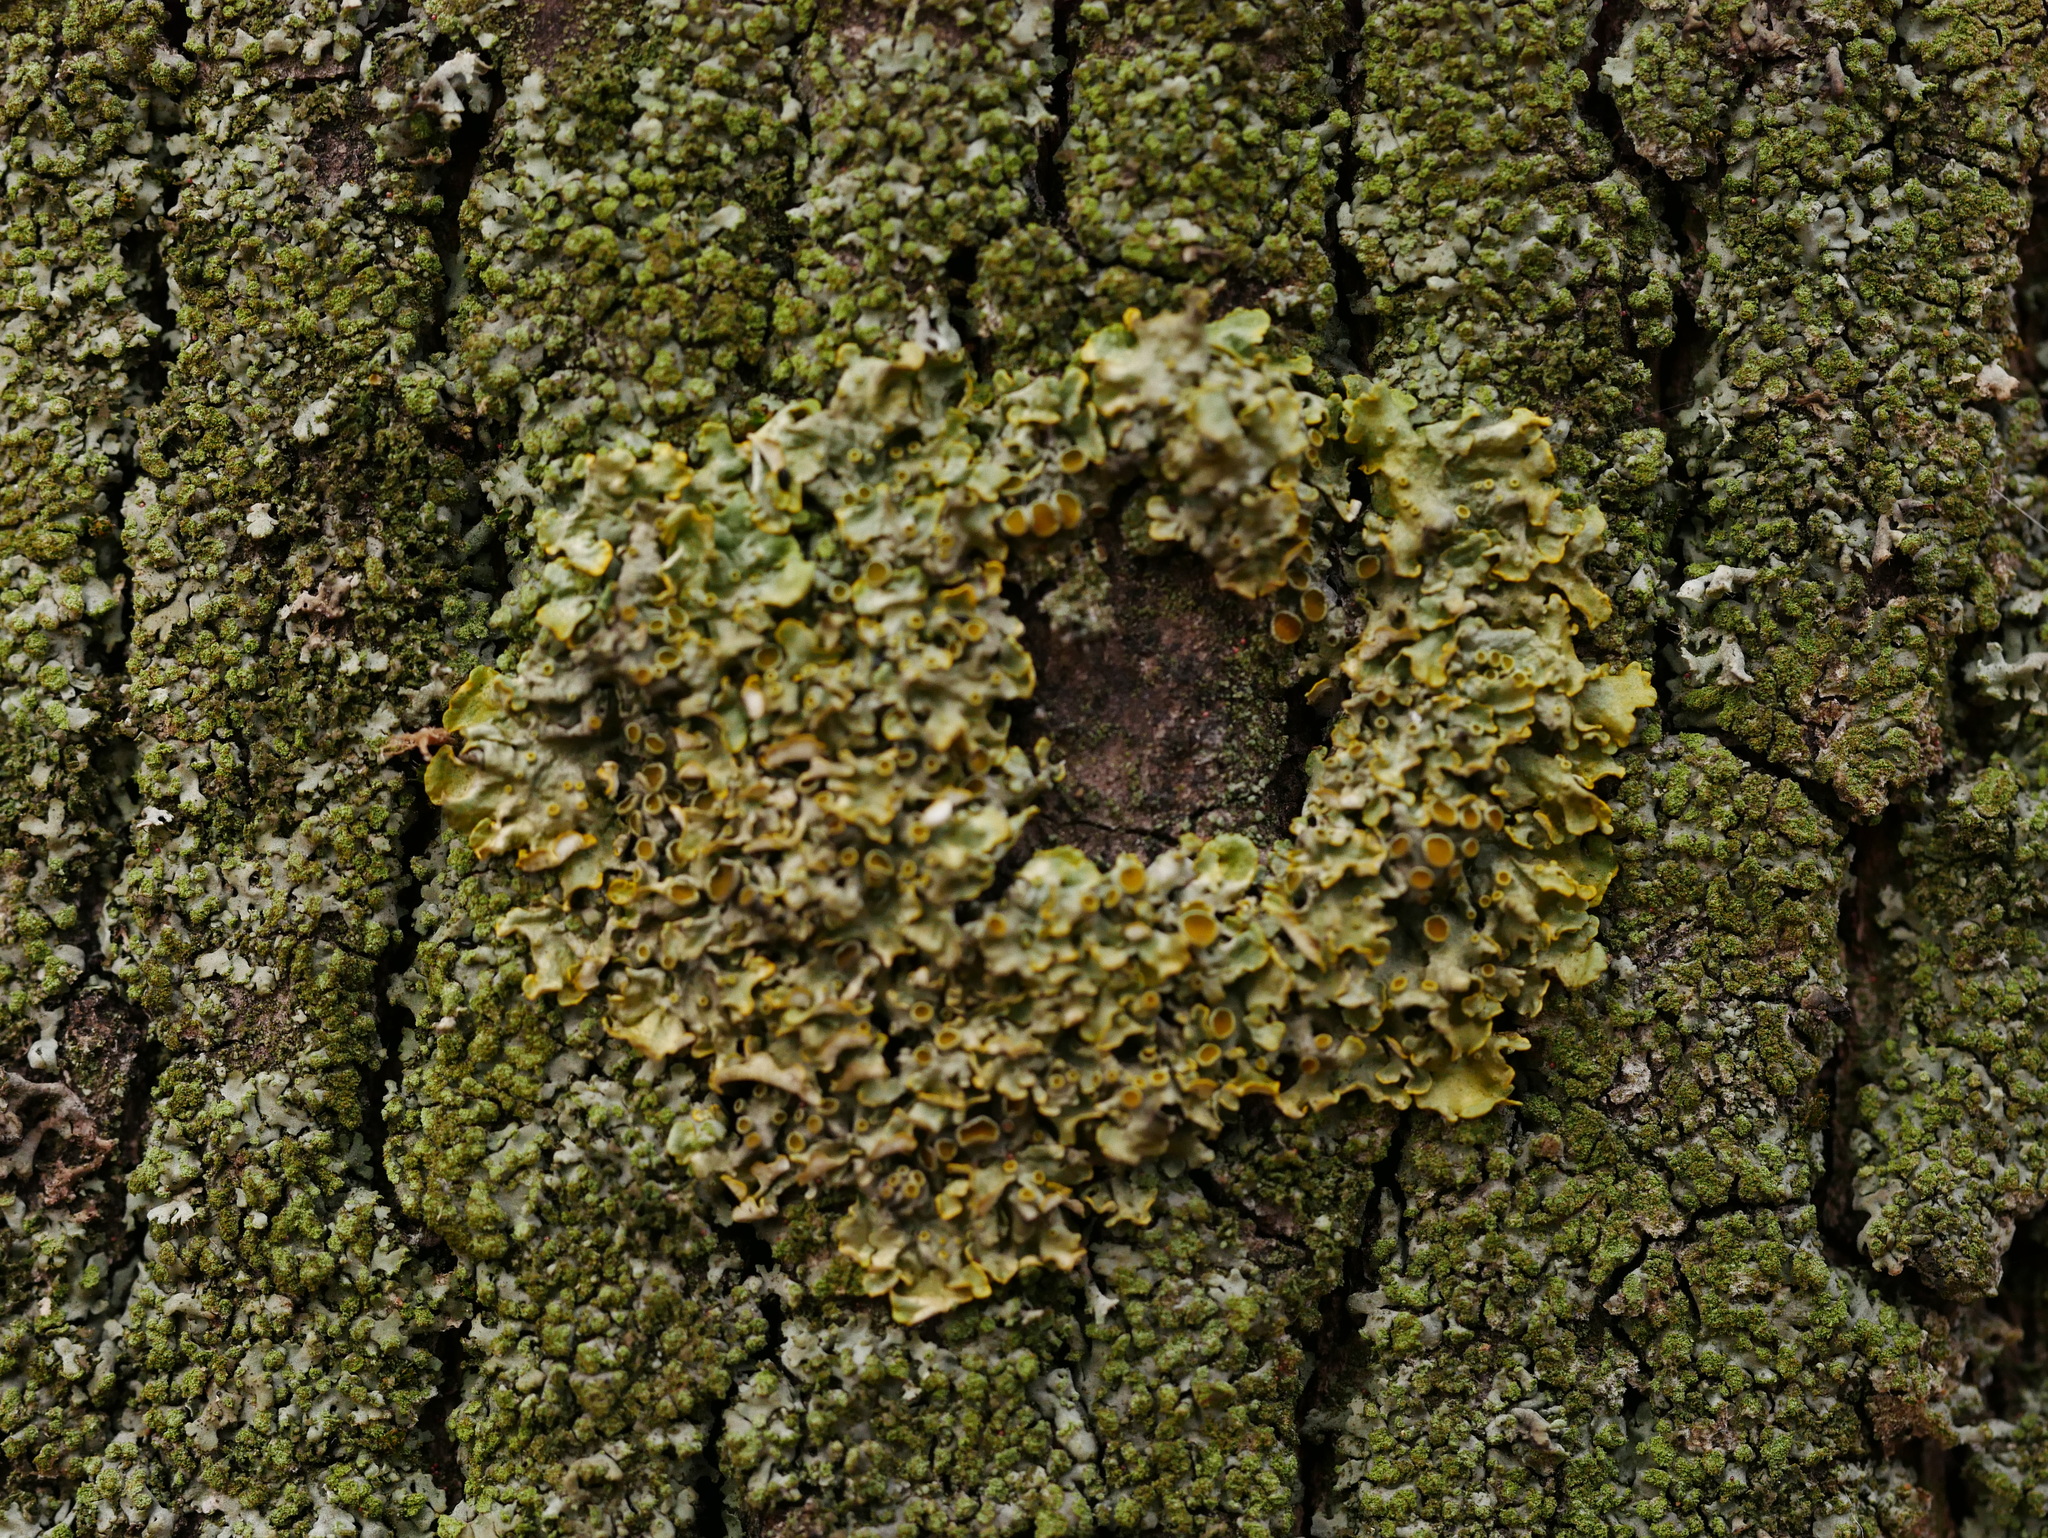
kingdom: Fungi
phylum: Ascomycota
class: Lecanoromycetes
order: Teloschistales
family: Teloschistaceae
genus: Xanthoria
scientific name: Xanthoria parietina
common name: Common orange lichen
